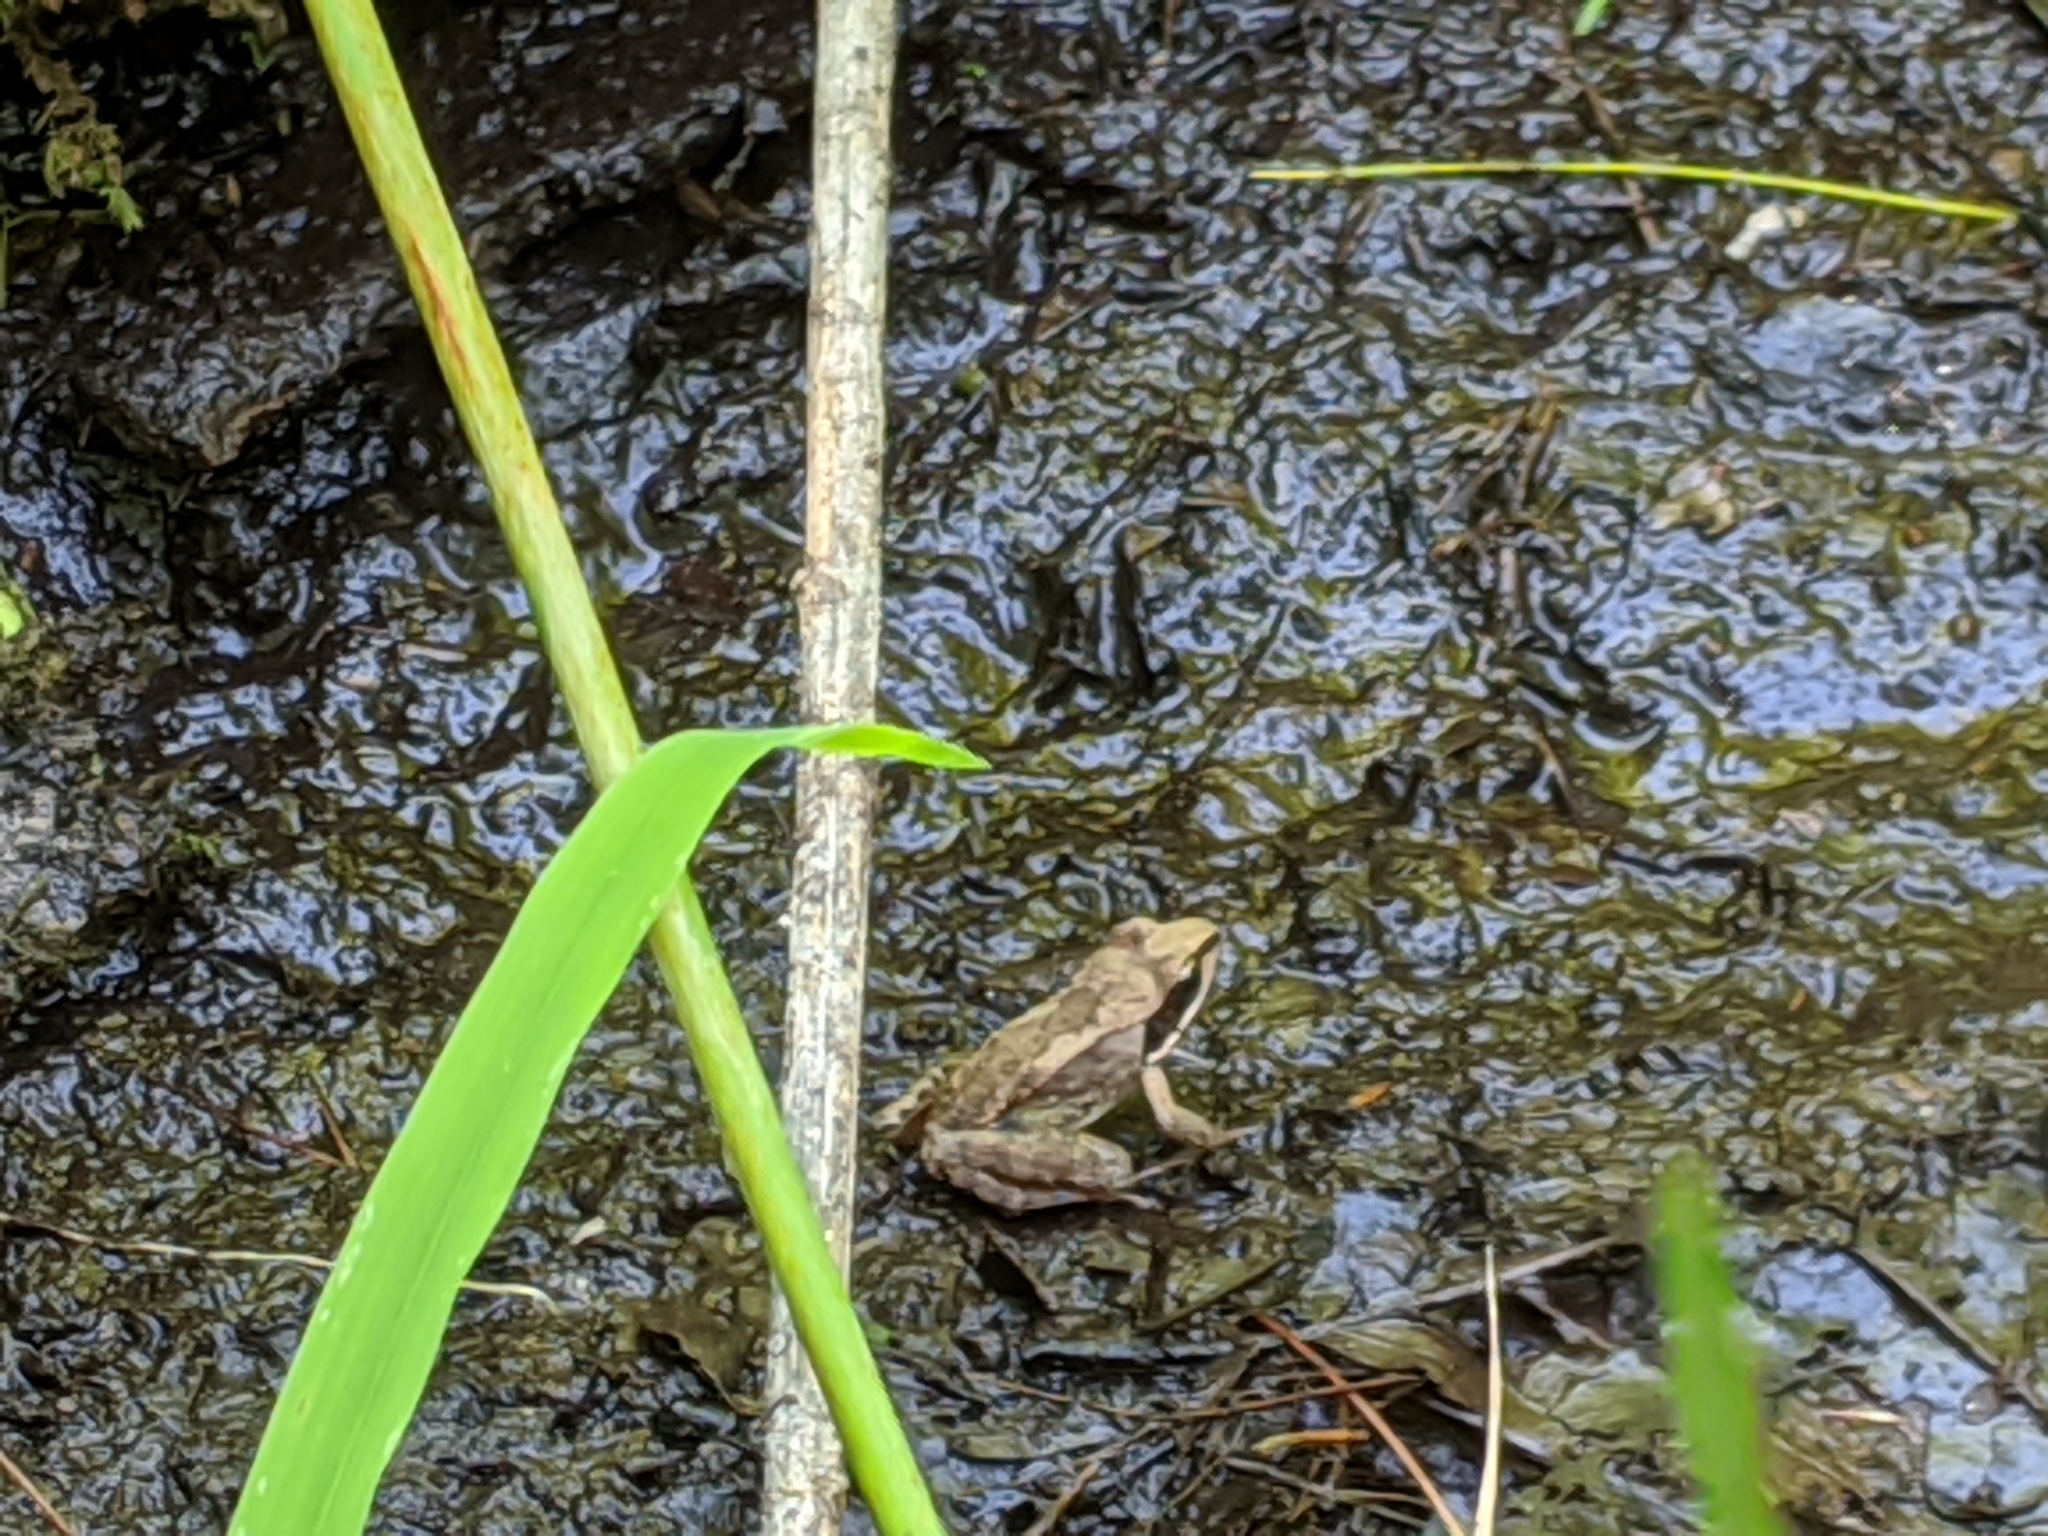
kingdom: Animalia
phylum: Chordata
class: Amphibia
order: Anura
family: Ranidae
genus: Lithobates
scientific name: Lithobates sylvaticus
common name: Wood frog
